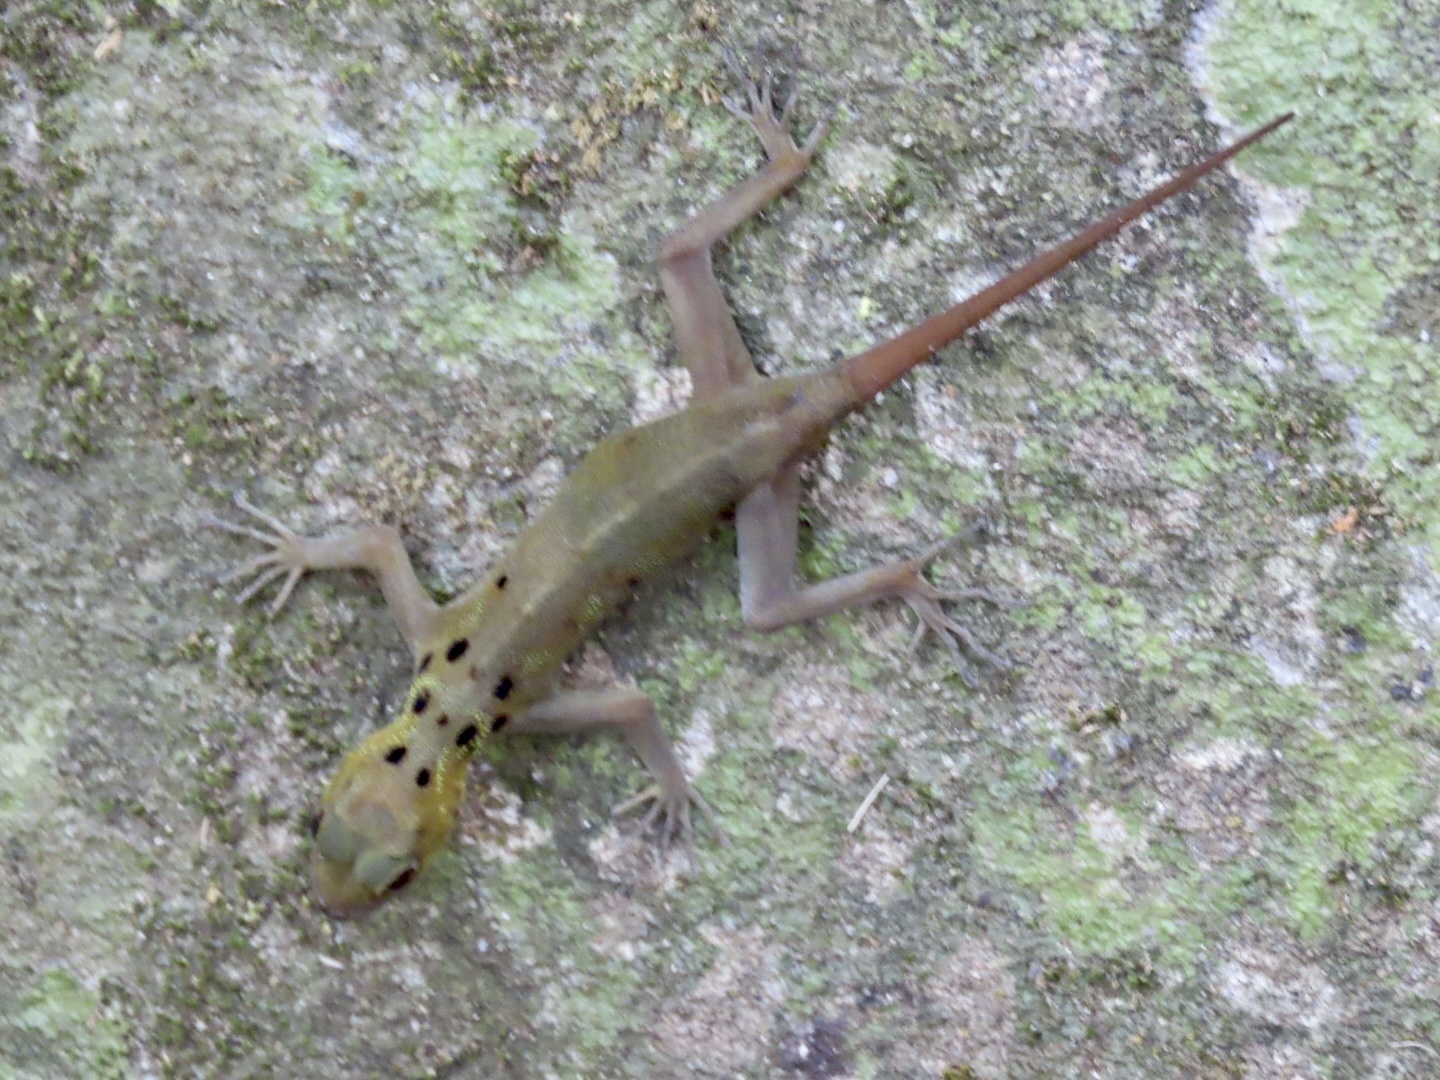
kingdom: Animalia
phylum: Chordata
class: Squamata
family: Gekkonidae
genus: Cnemaspis
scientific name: Cnemaspis boulengeri
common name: Boulenger's rock gecko
